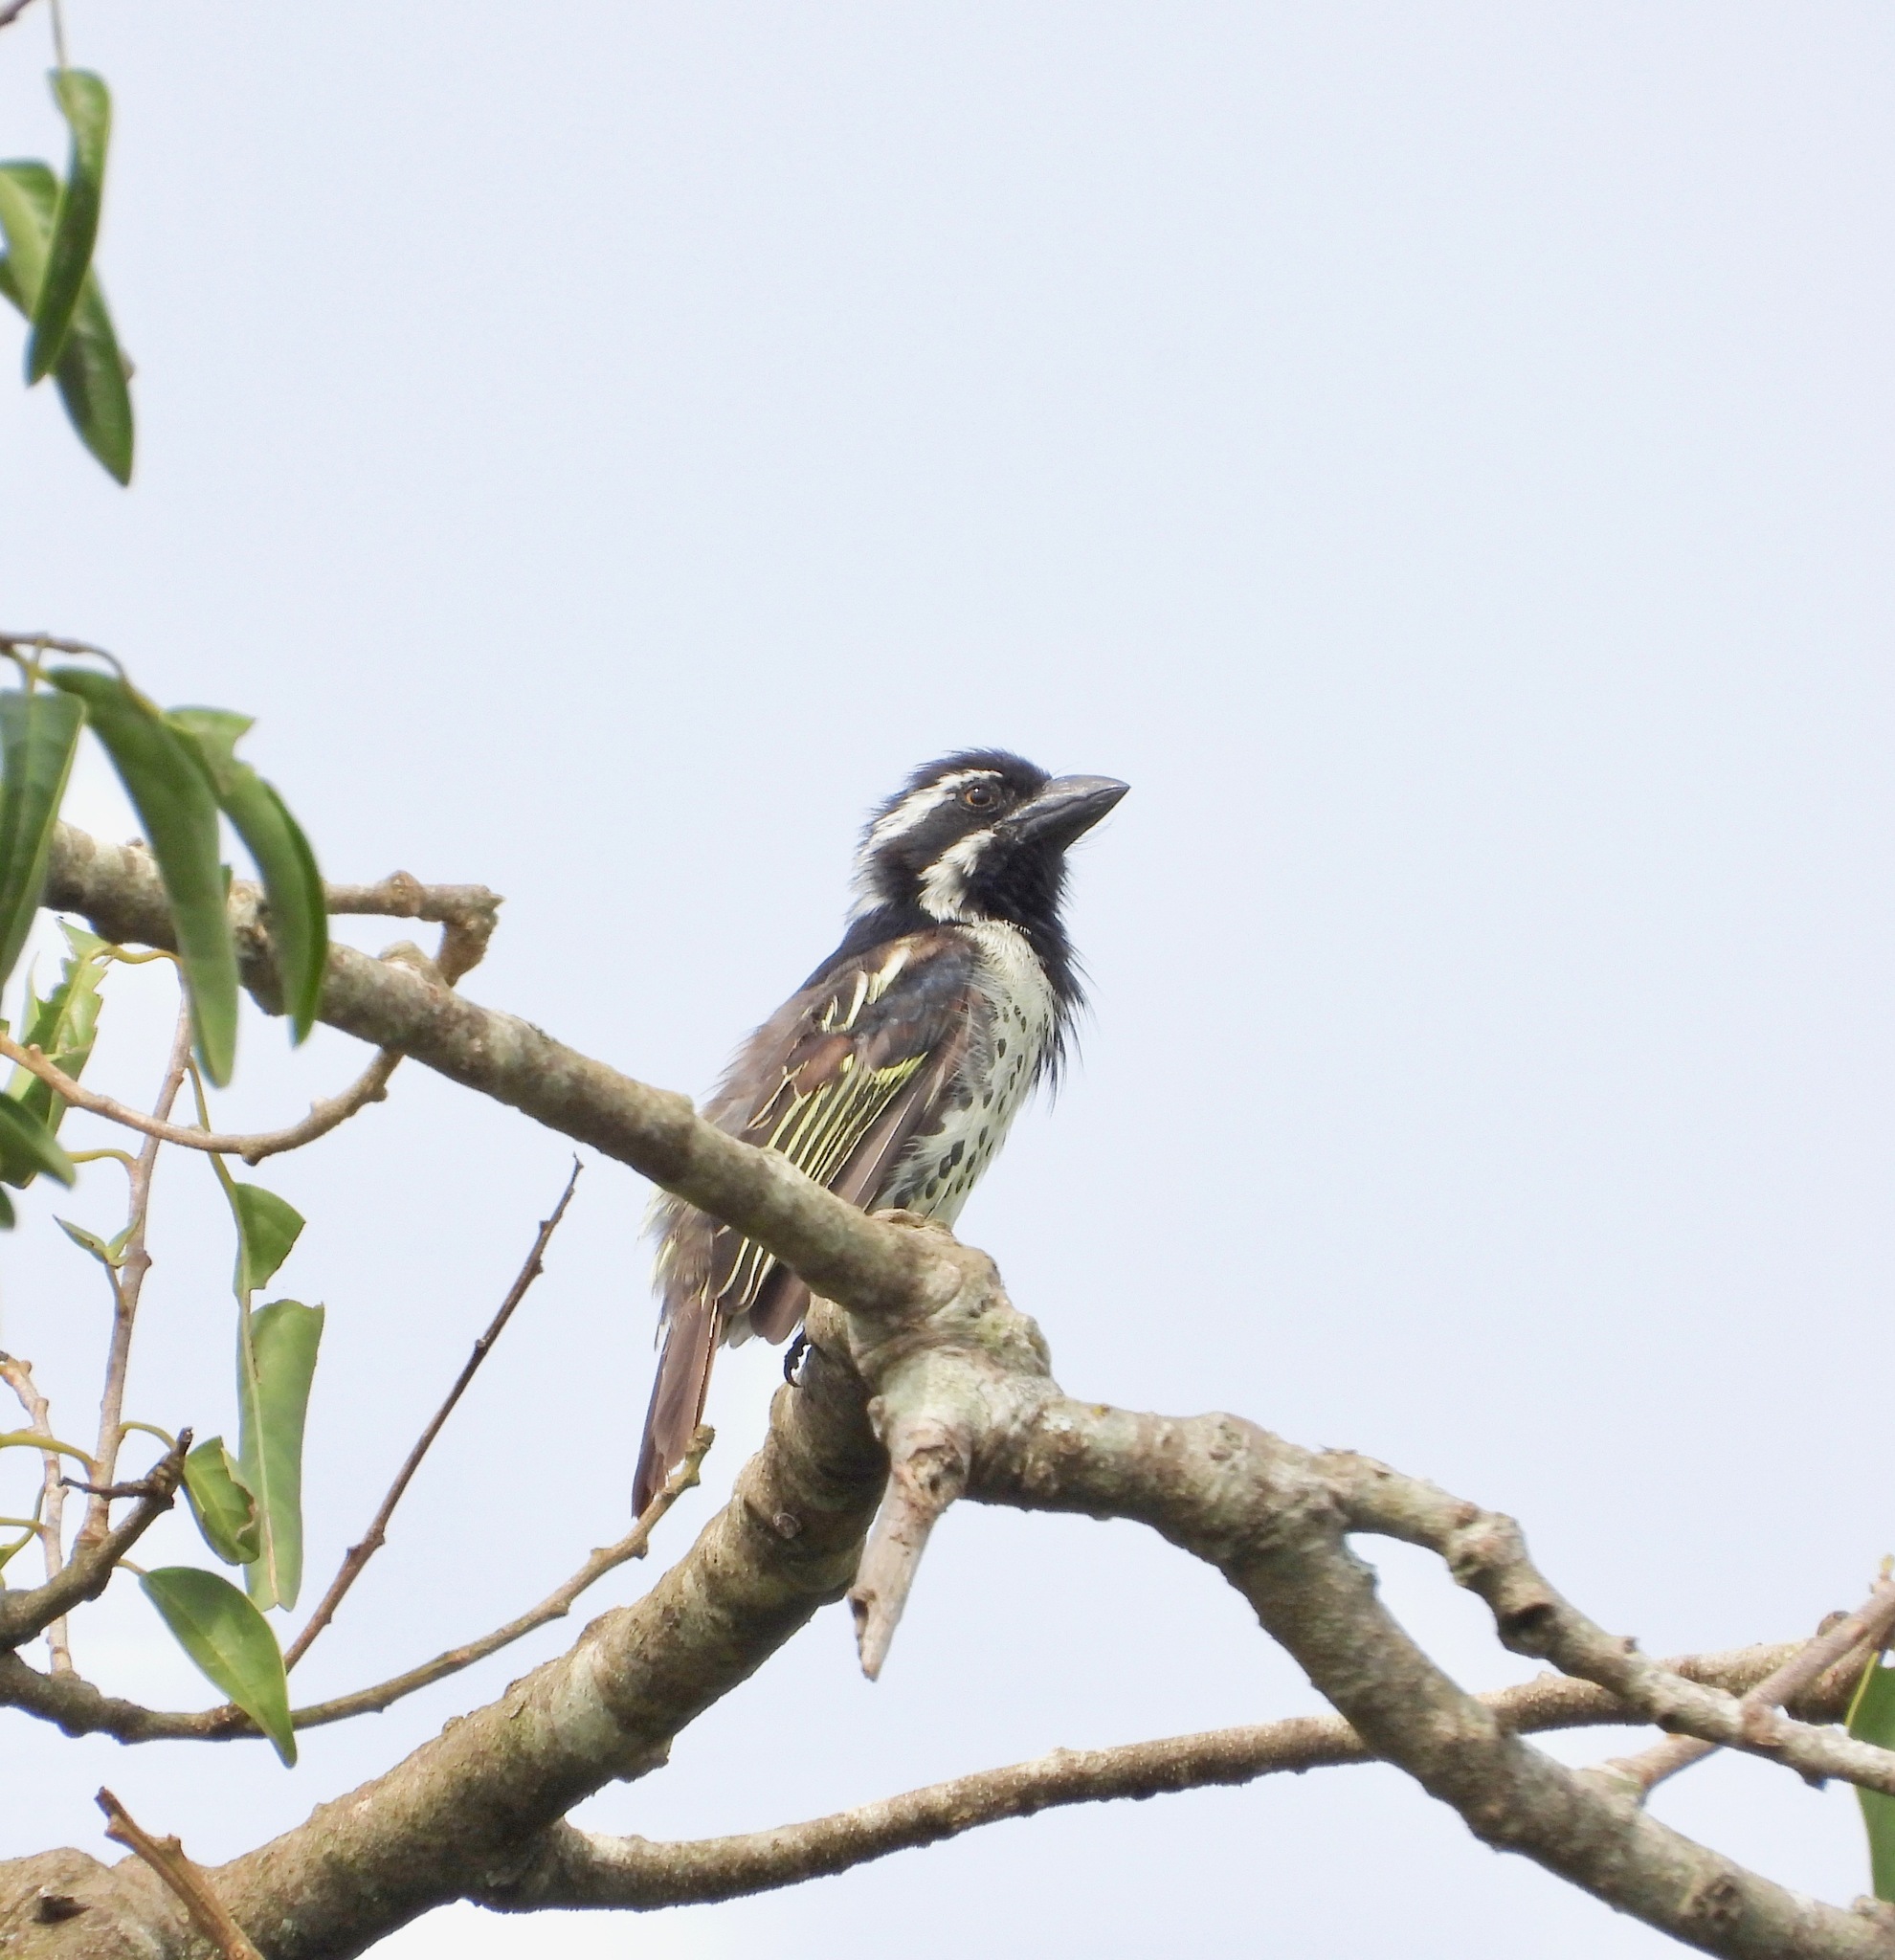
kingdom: Animalia
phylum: Chordata
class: Aves
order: Piciformes
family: Lybiidae
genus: Tricholaema
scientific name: Tricholaema lacrymosa
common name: Spot-flanked barbet
